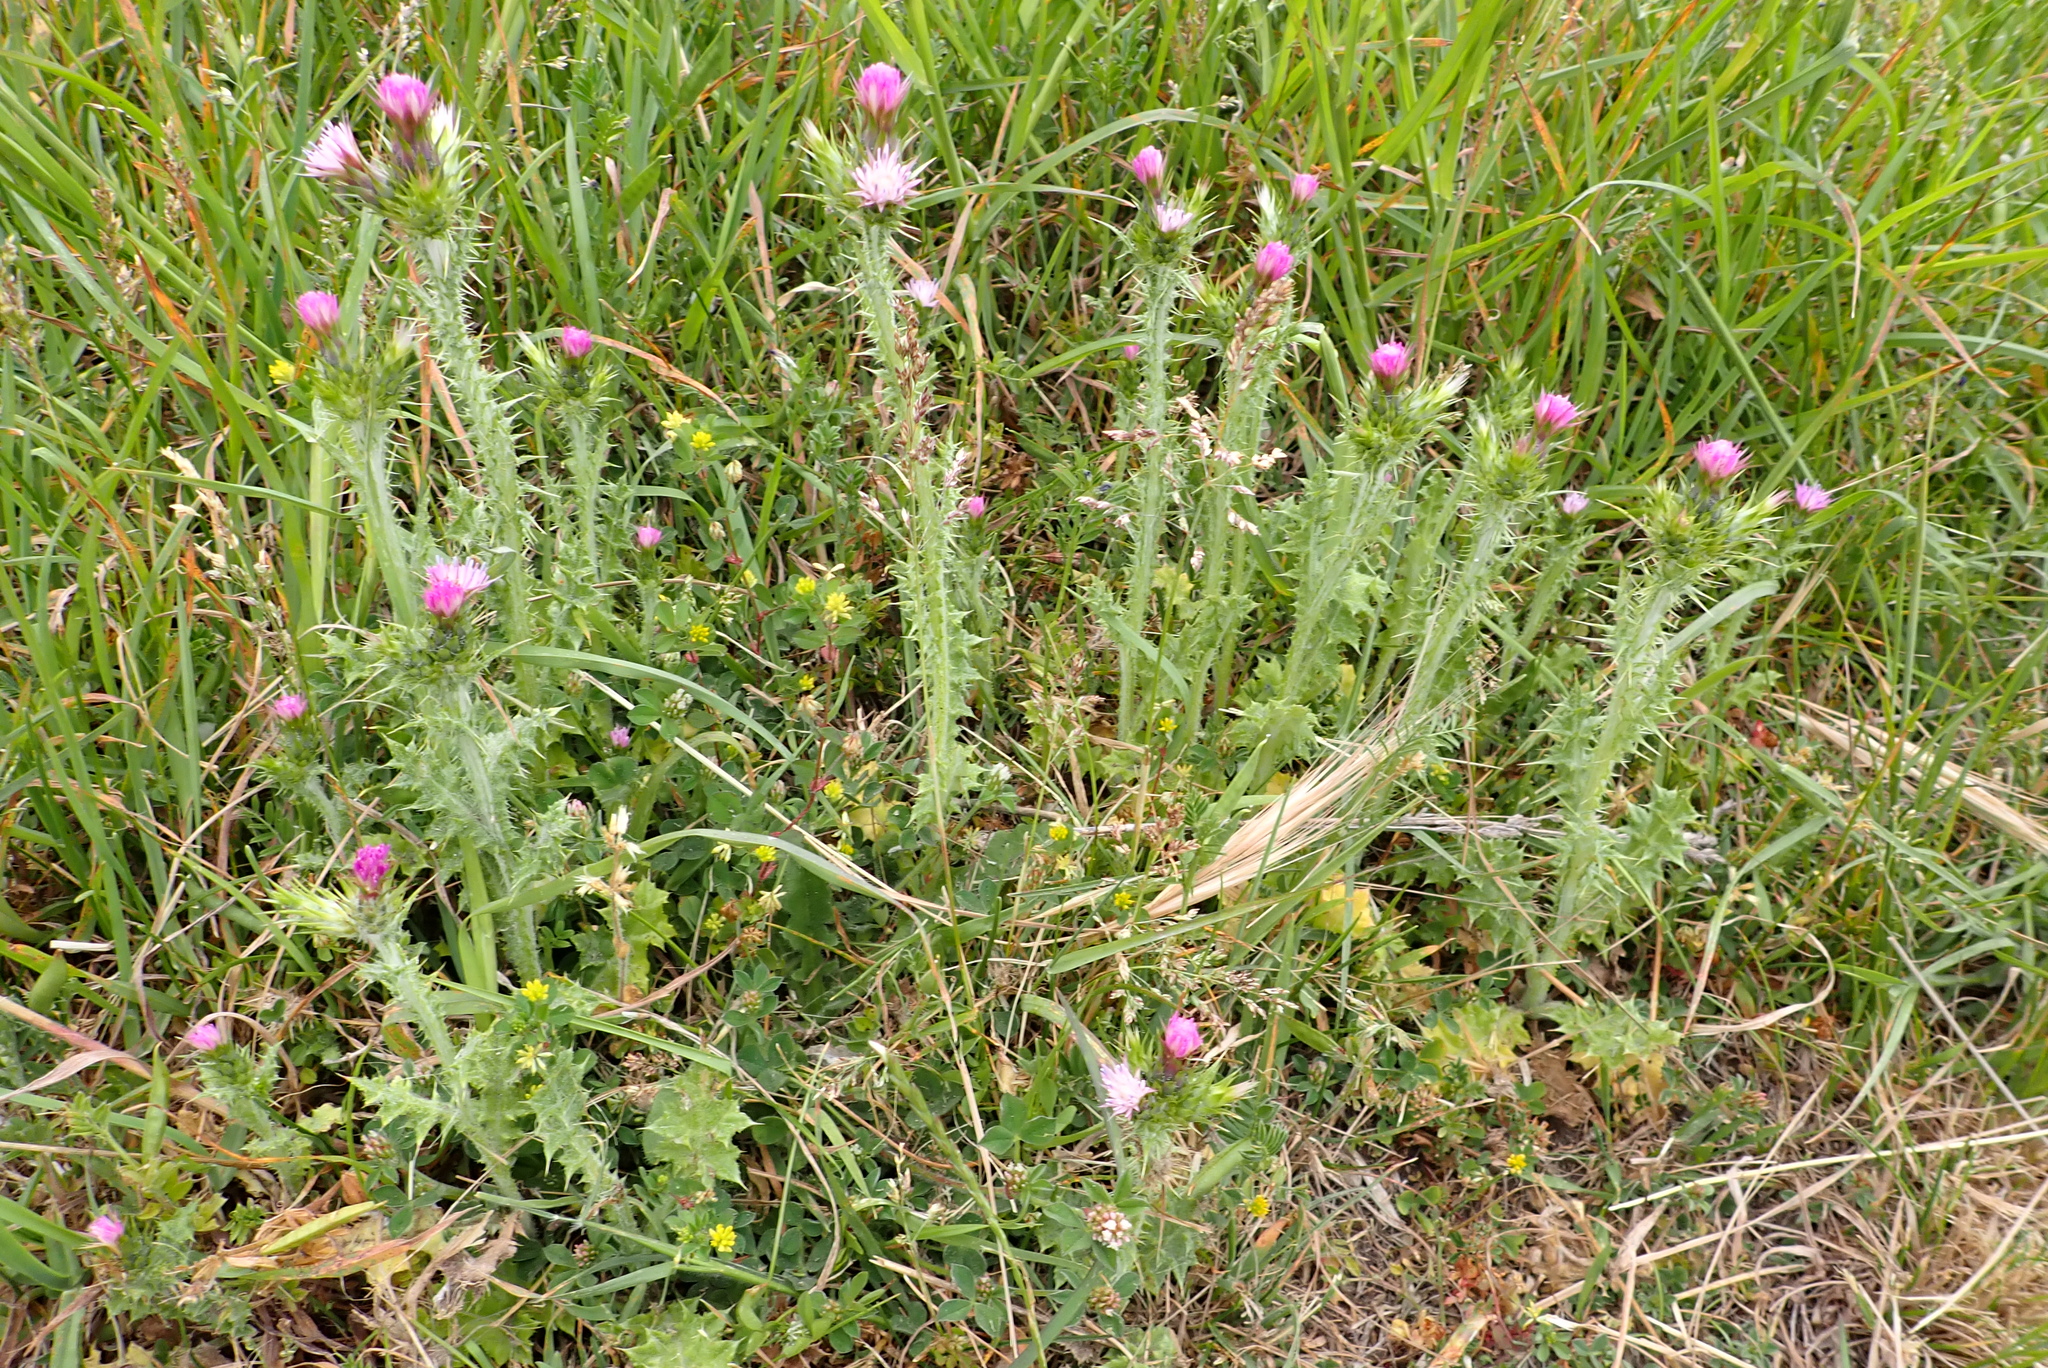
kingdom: Plantae
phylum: Tracheophyta
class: Magnoliopsida
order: Asterales
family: Asteraceae
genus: Carduus
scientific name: Carduus pycnocephalus
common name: Plymouth thistle
